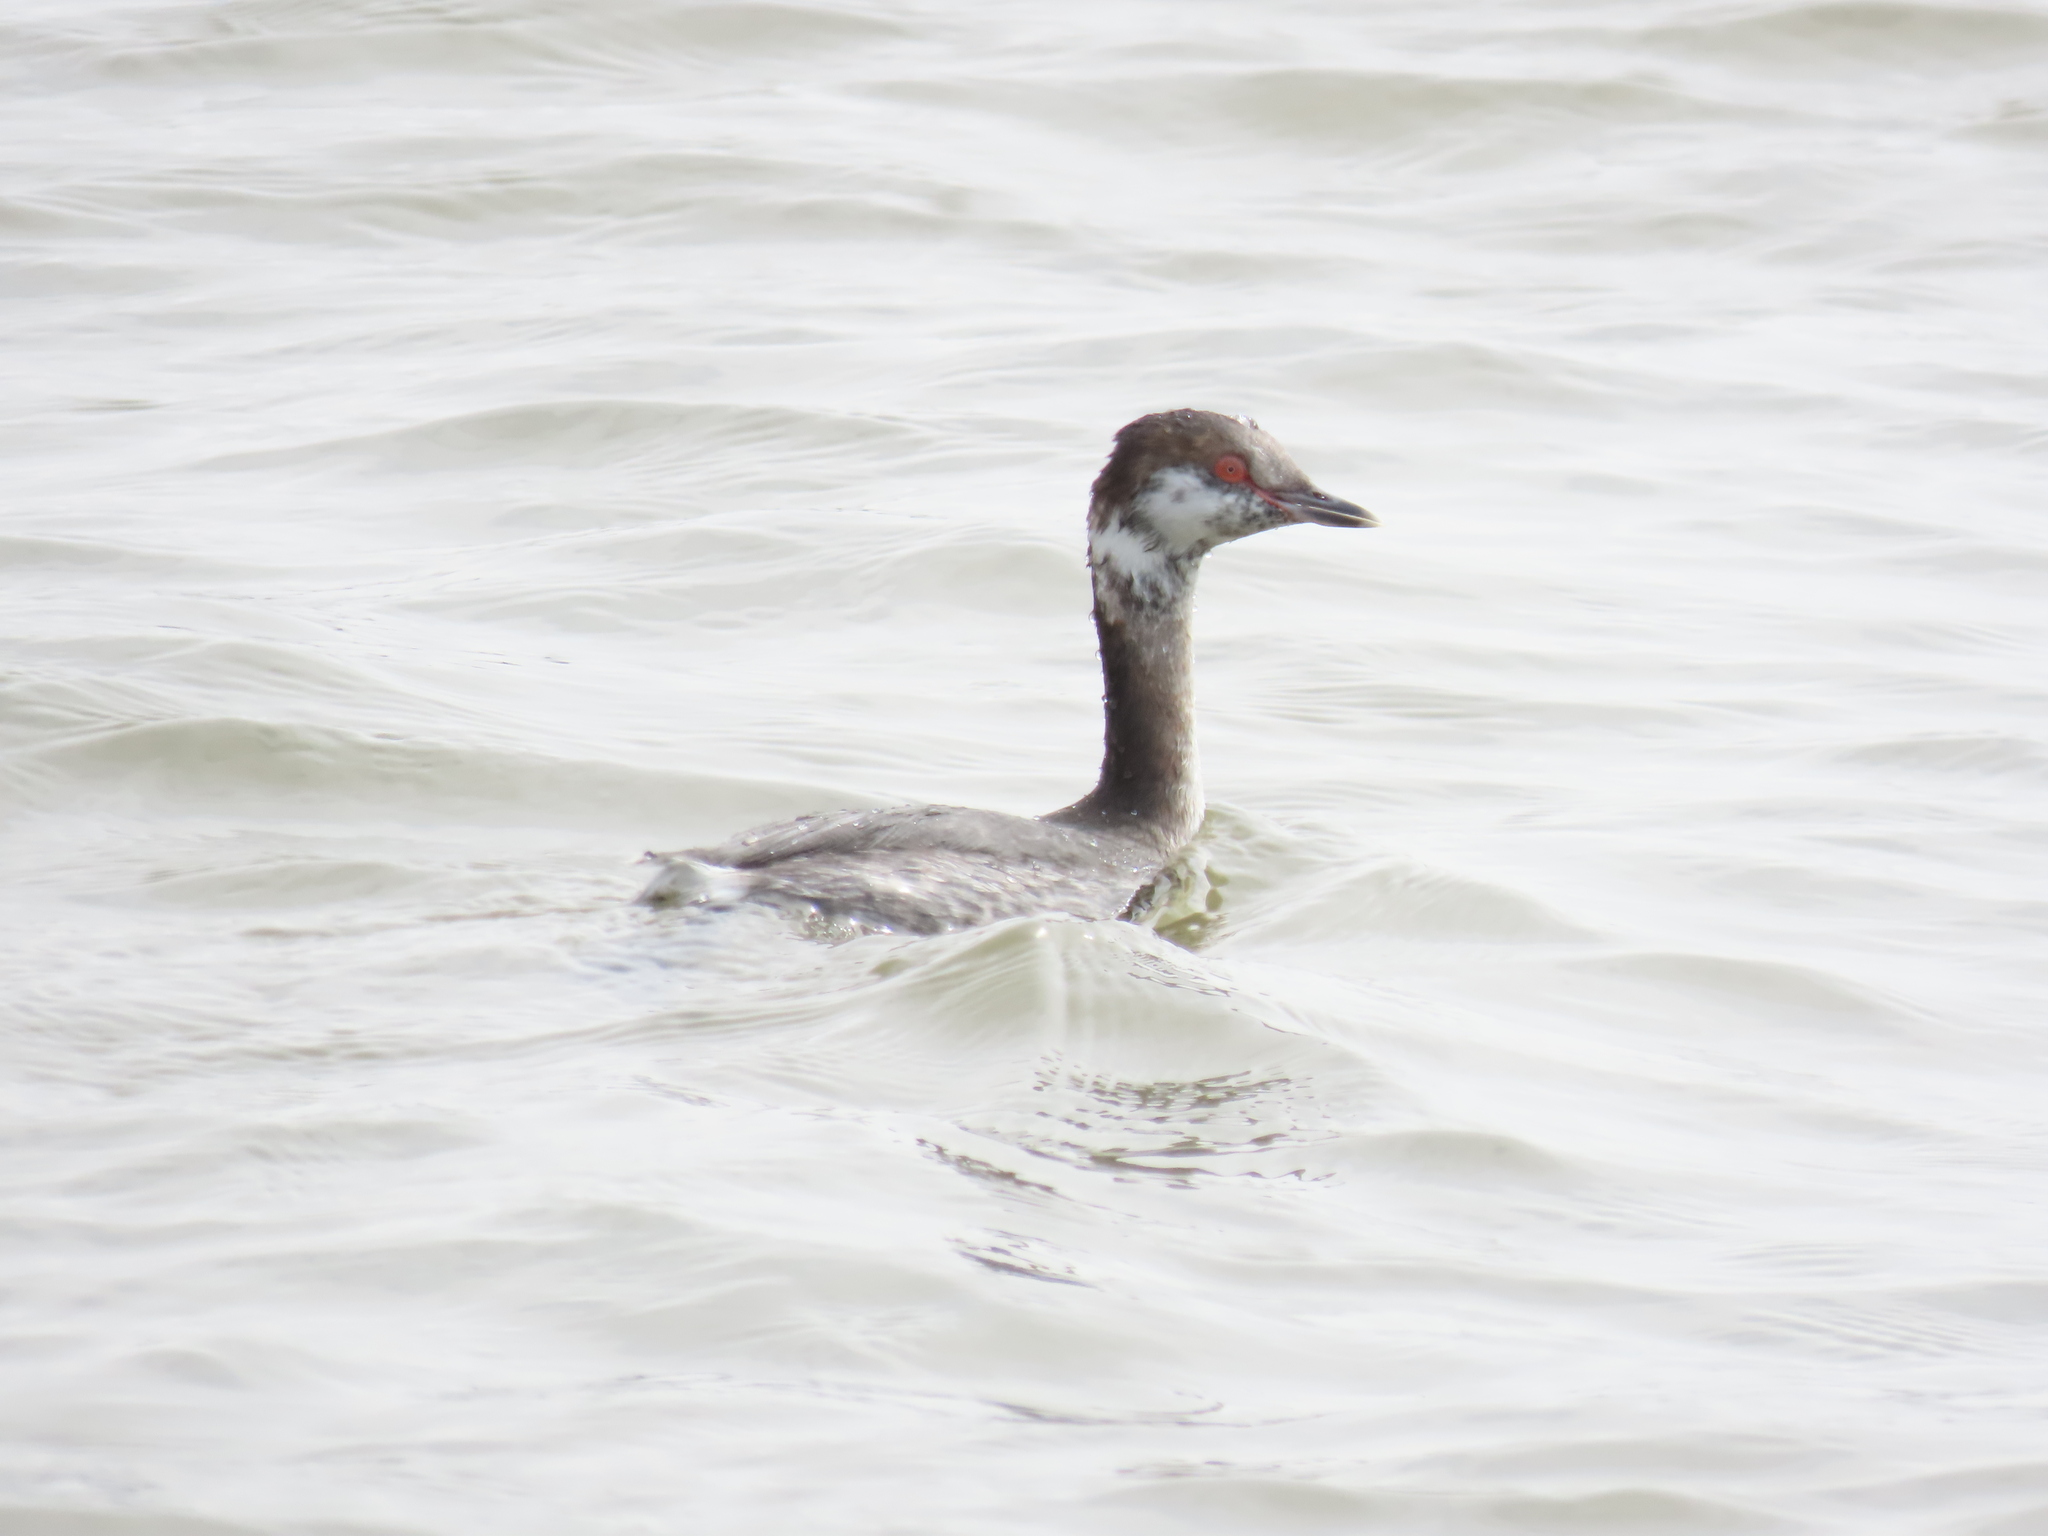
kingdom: Animalia
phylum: Chordata
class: Aves
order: Podicipediformes
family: Podicipedidae
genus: Podiceps
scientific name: Podiceps auritus
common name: Horned grebe
